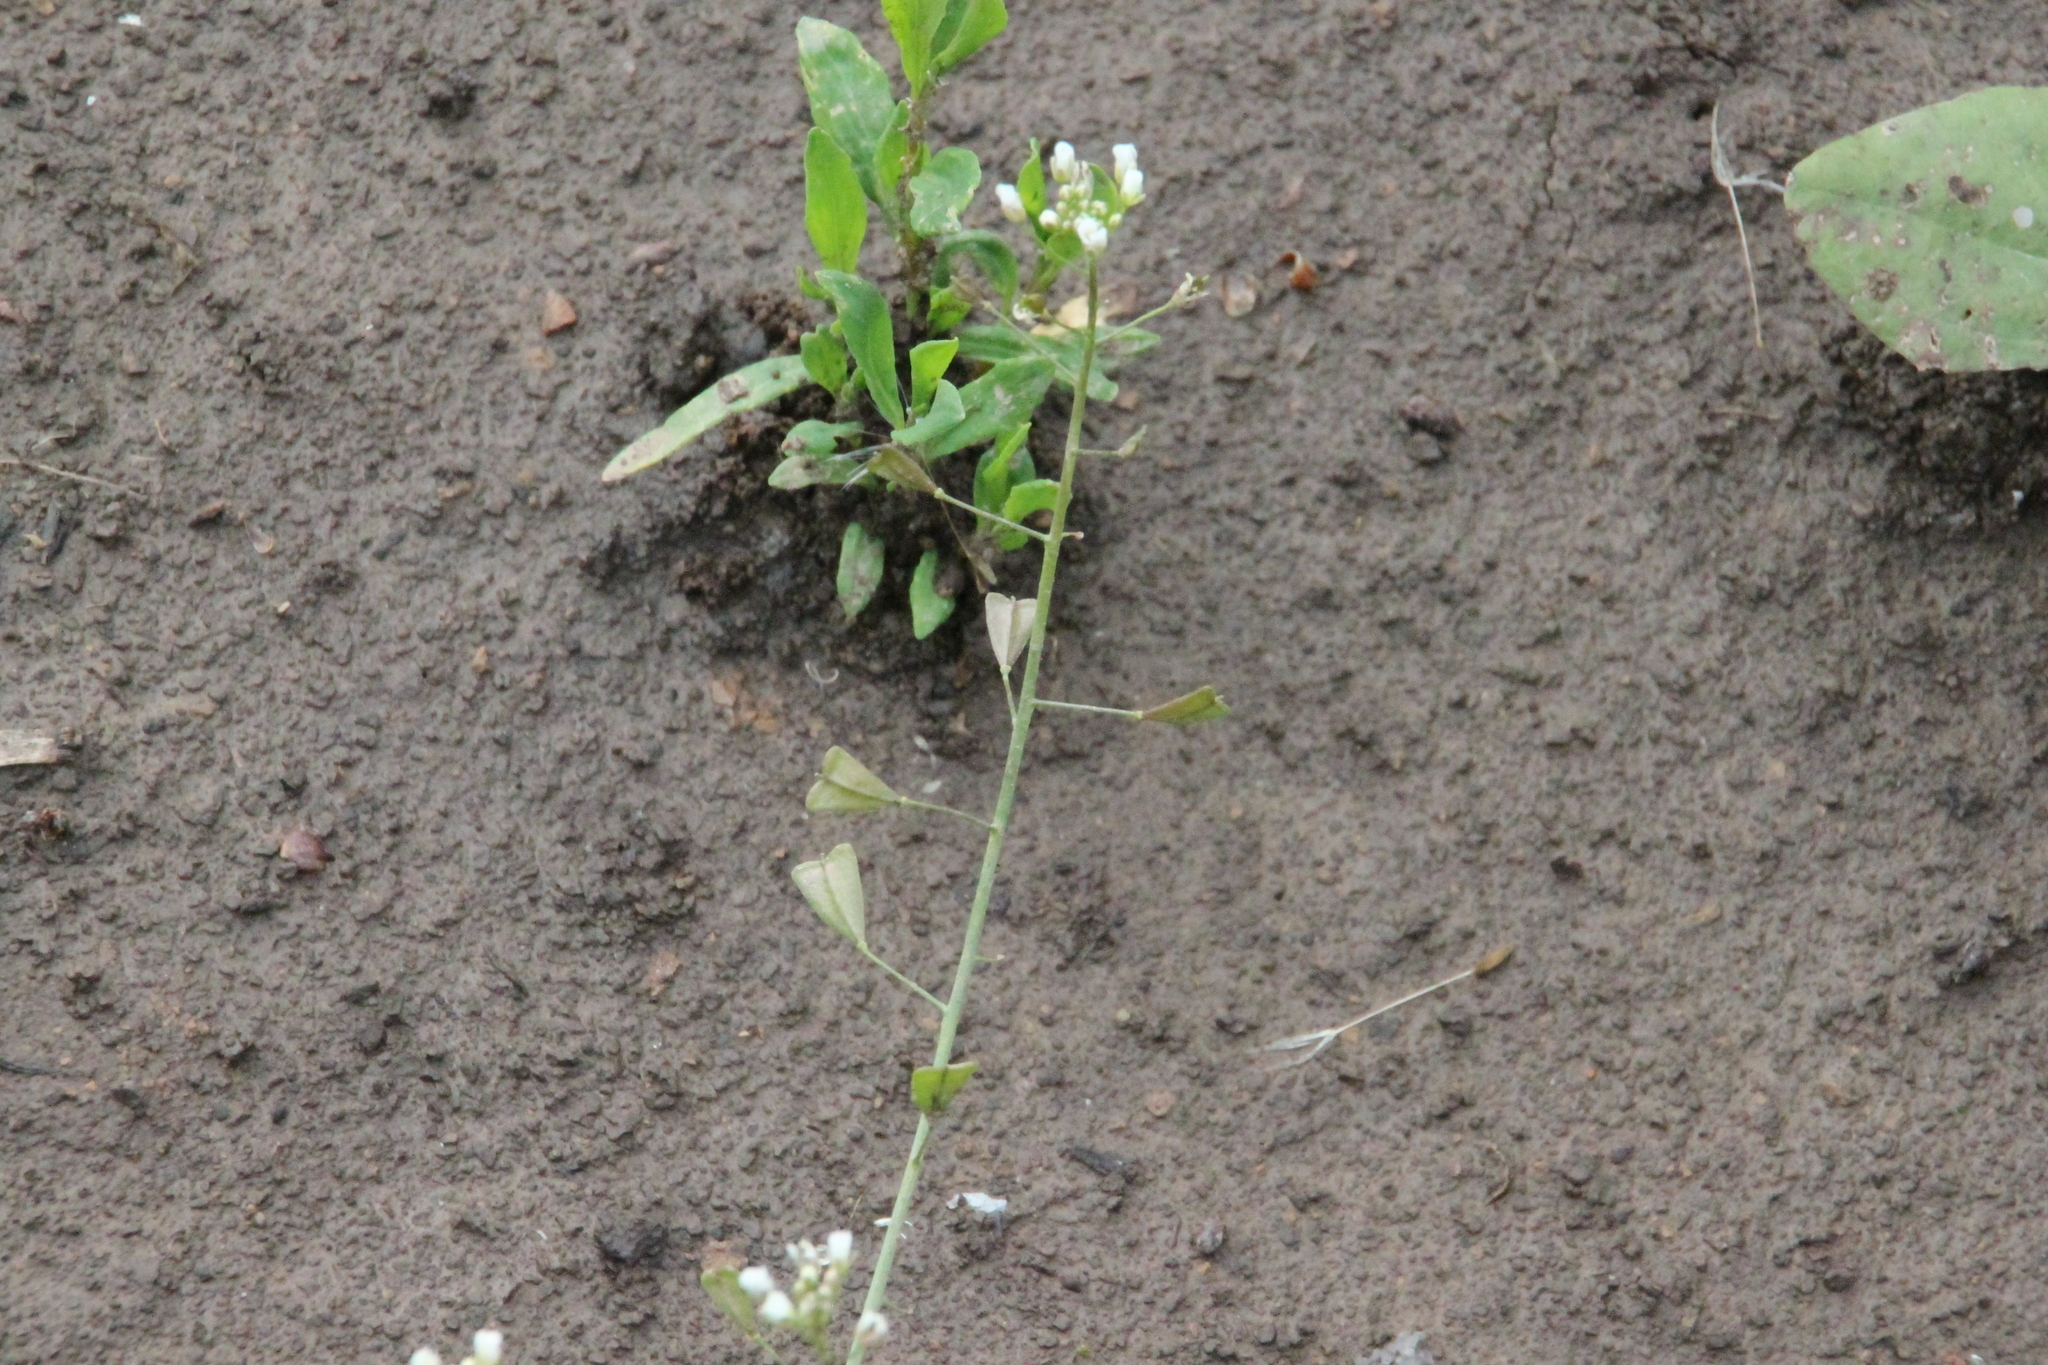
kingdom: Plantae
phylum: Tracheophyta
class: Magnoliopsida
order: Brassicales
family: Brassicaceae
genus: Capsella
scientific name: Capsella bursa-pastoris
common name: Shepherd's purse
